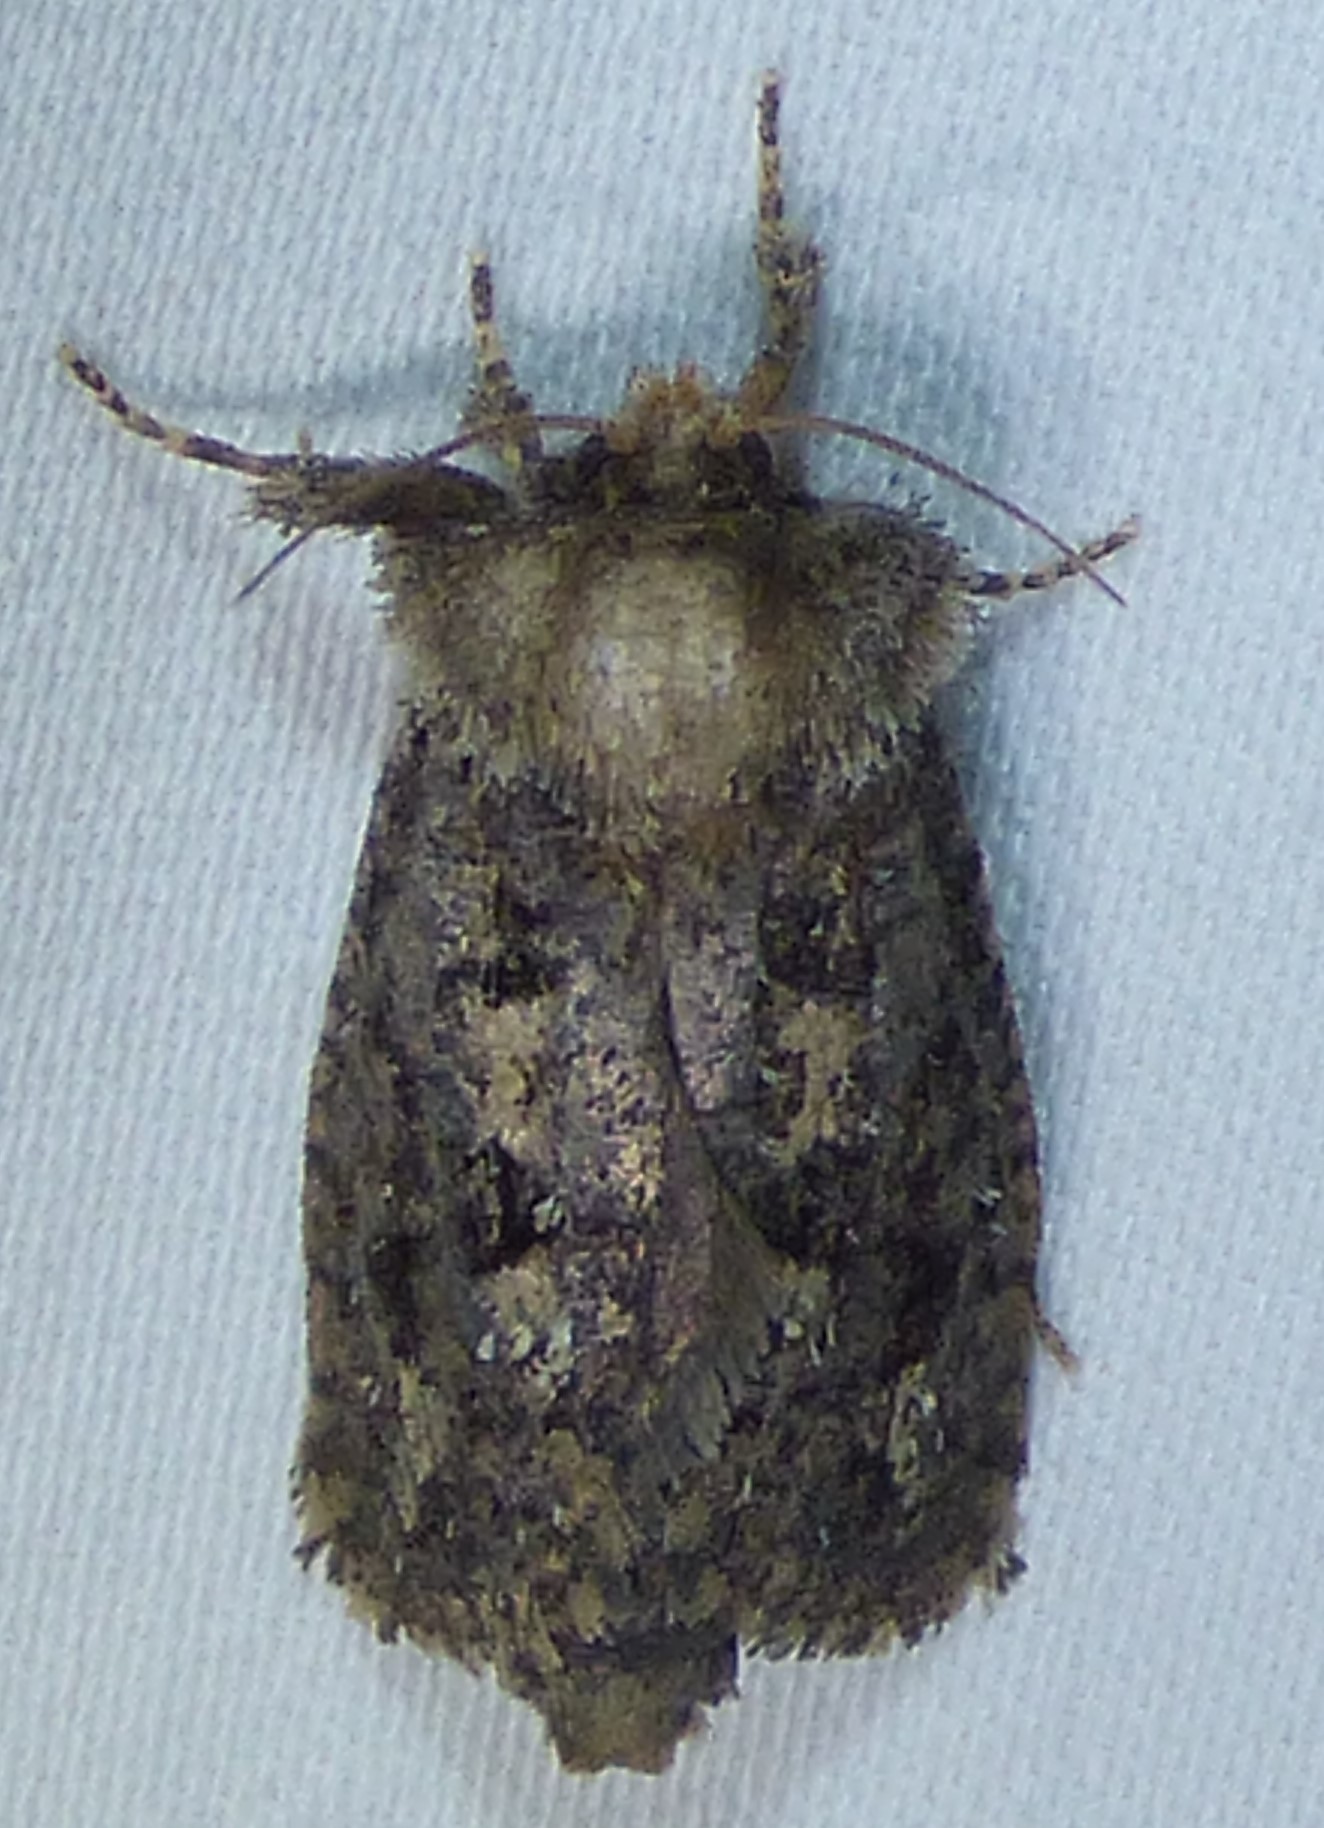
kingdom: Animalia
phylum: Arthropoda
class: Insecta
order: Lepidoptera
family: Tineidae
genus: Acrolophus
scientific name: Acrolophus arcanella
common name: Arcane grass tubeworm moth
